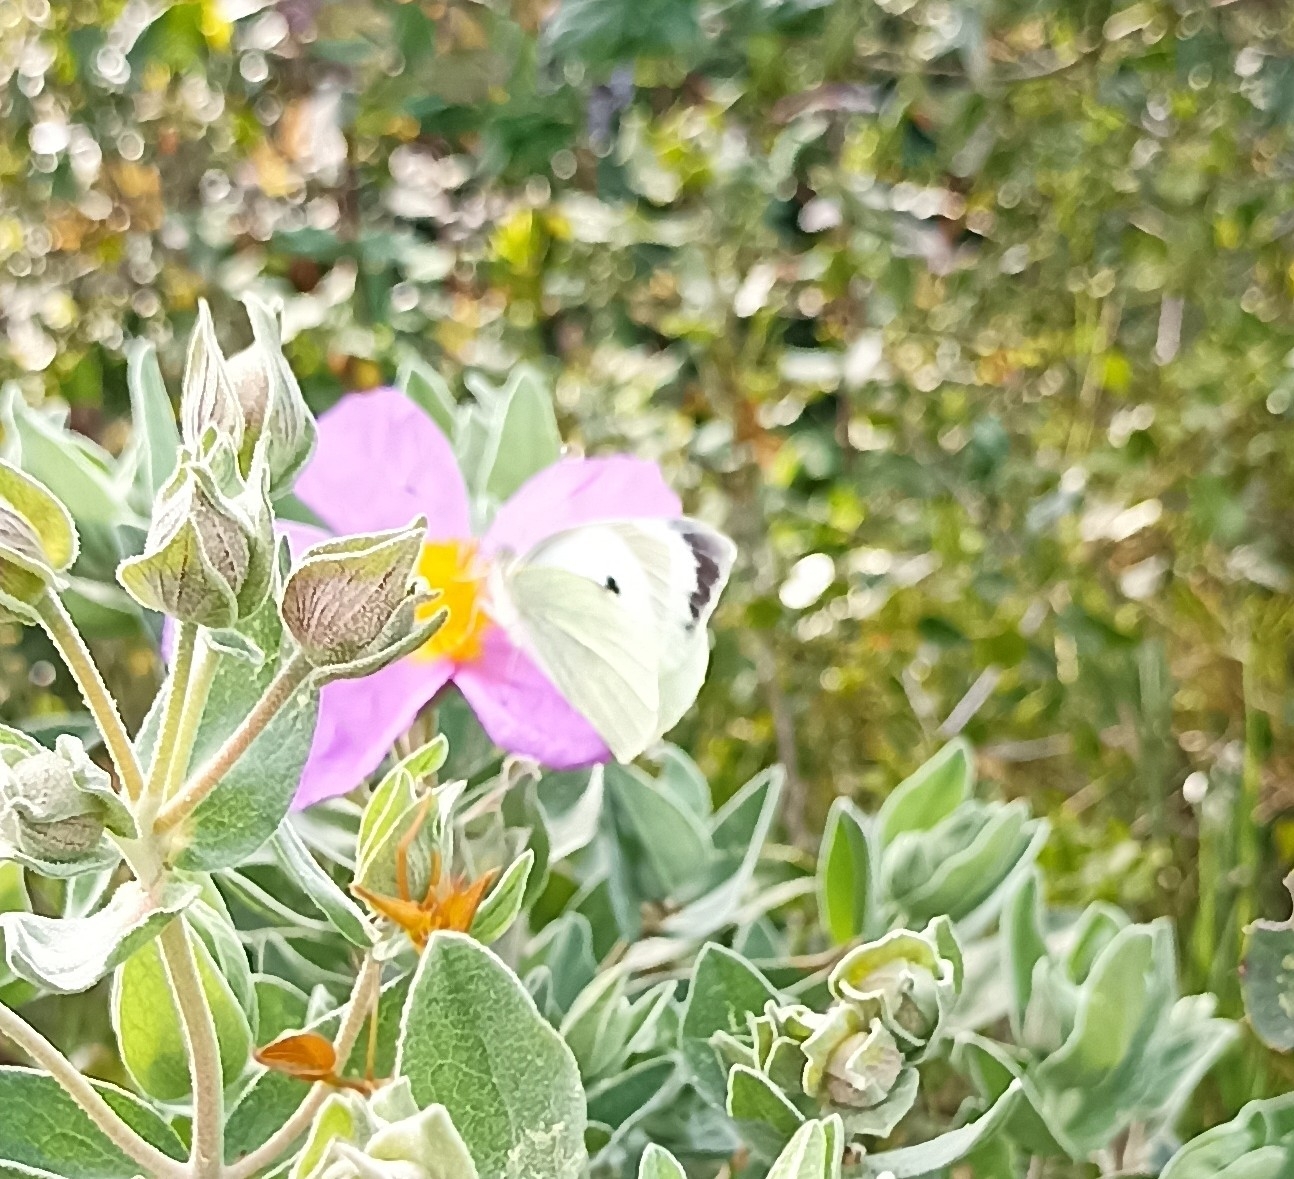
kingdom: Animalia
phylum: Arthropoda
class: Insecta
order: Lepidoptera
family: Pieridae
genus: Pieris
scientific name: Pieris brassicae
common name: Large white
